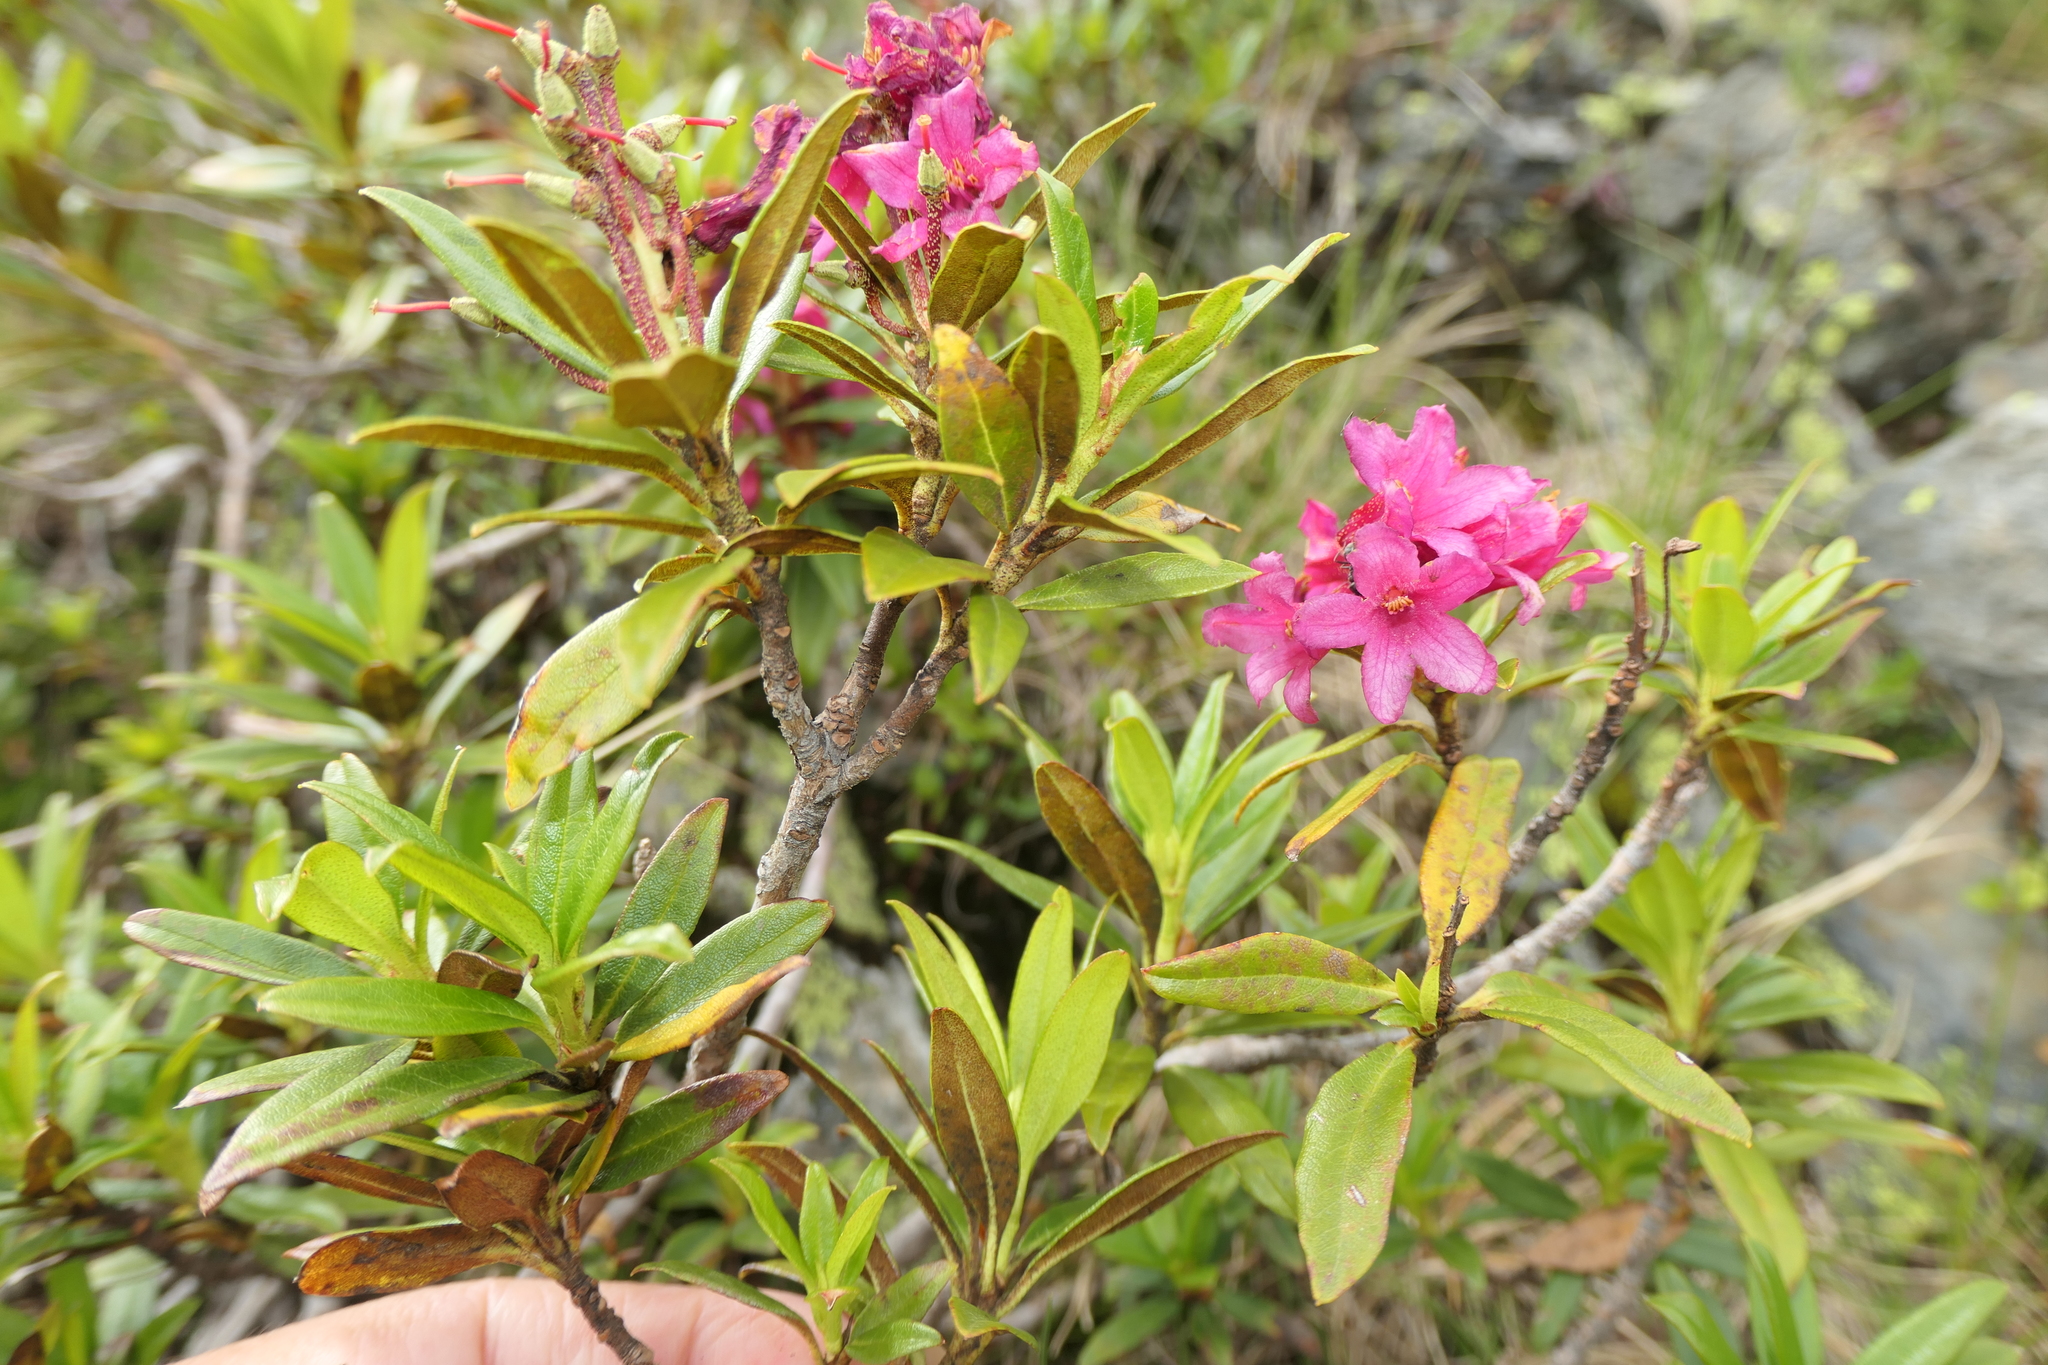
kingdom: Plantae
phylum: Tracheophyta
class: Magnoliopsida
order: Ericales
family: Ericaceae
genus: Rhododendron
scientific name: Rhododendron ferrugineum
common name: Alpenrose
